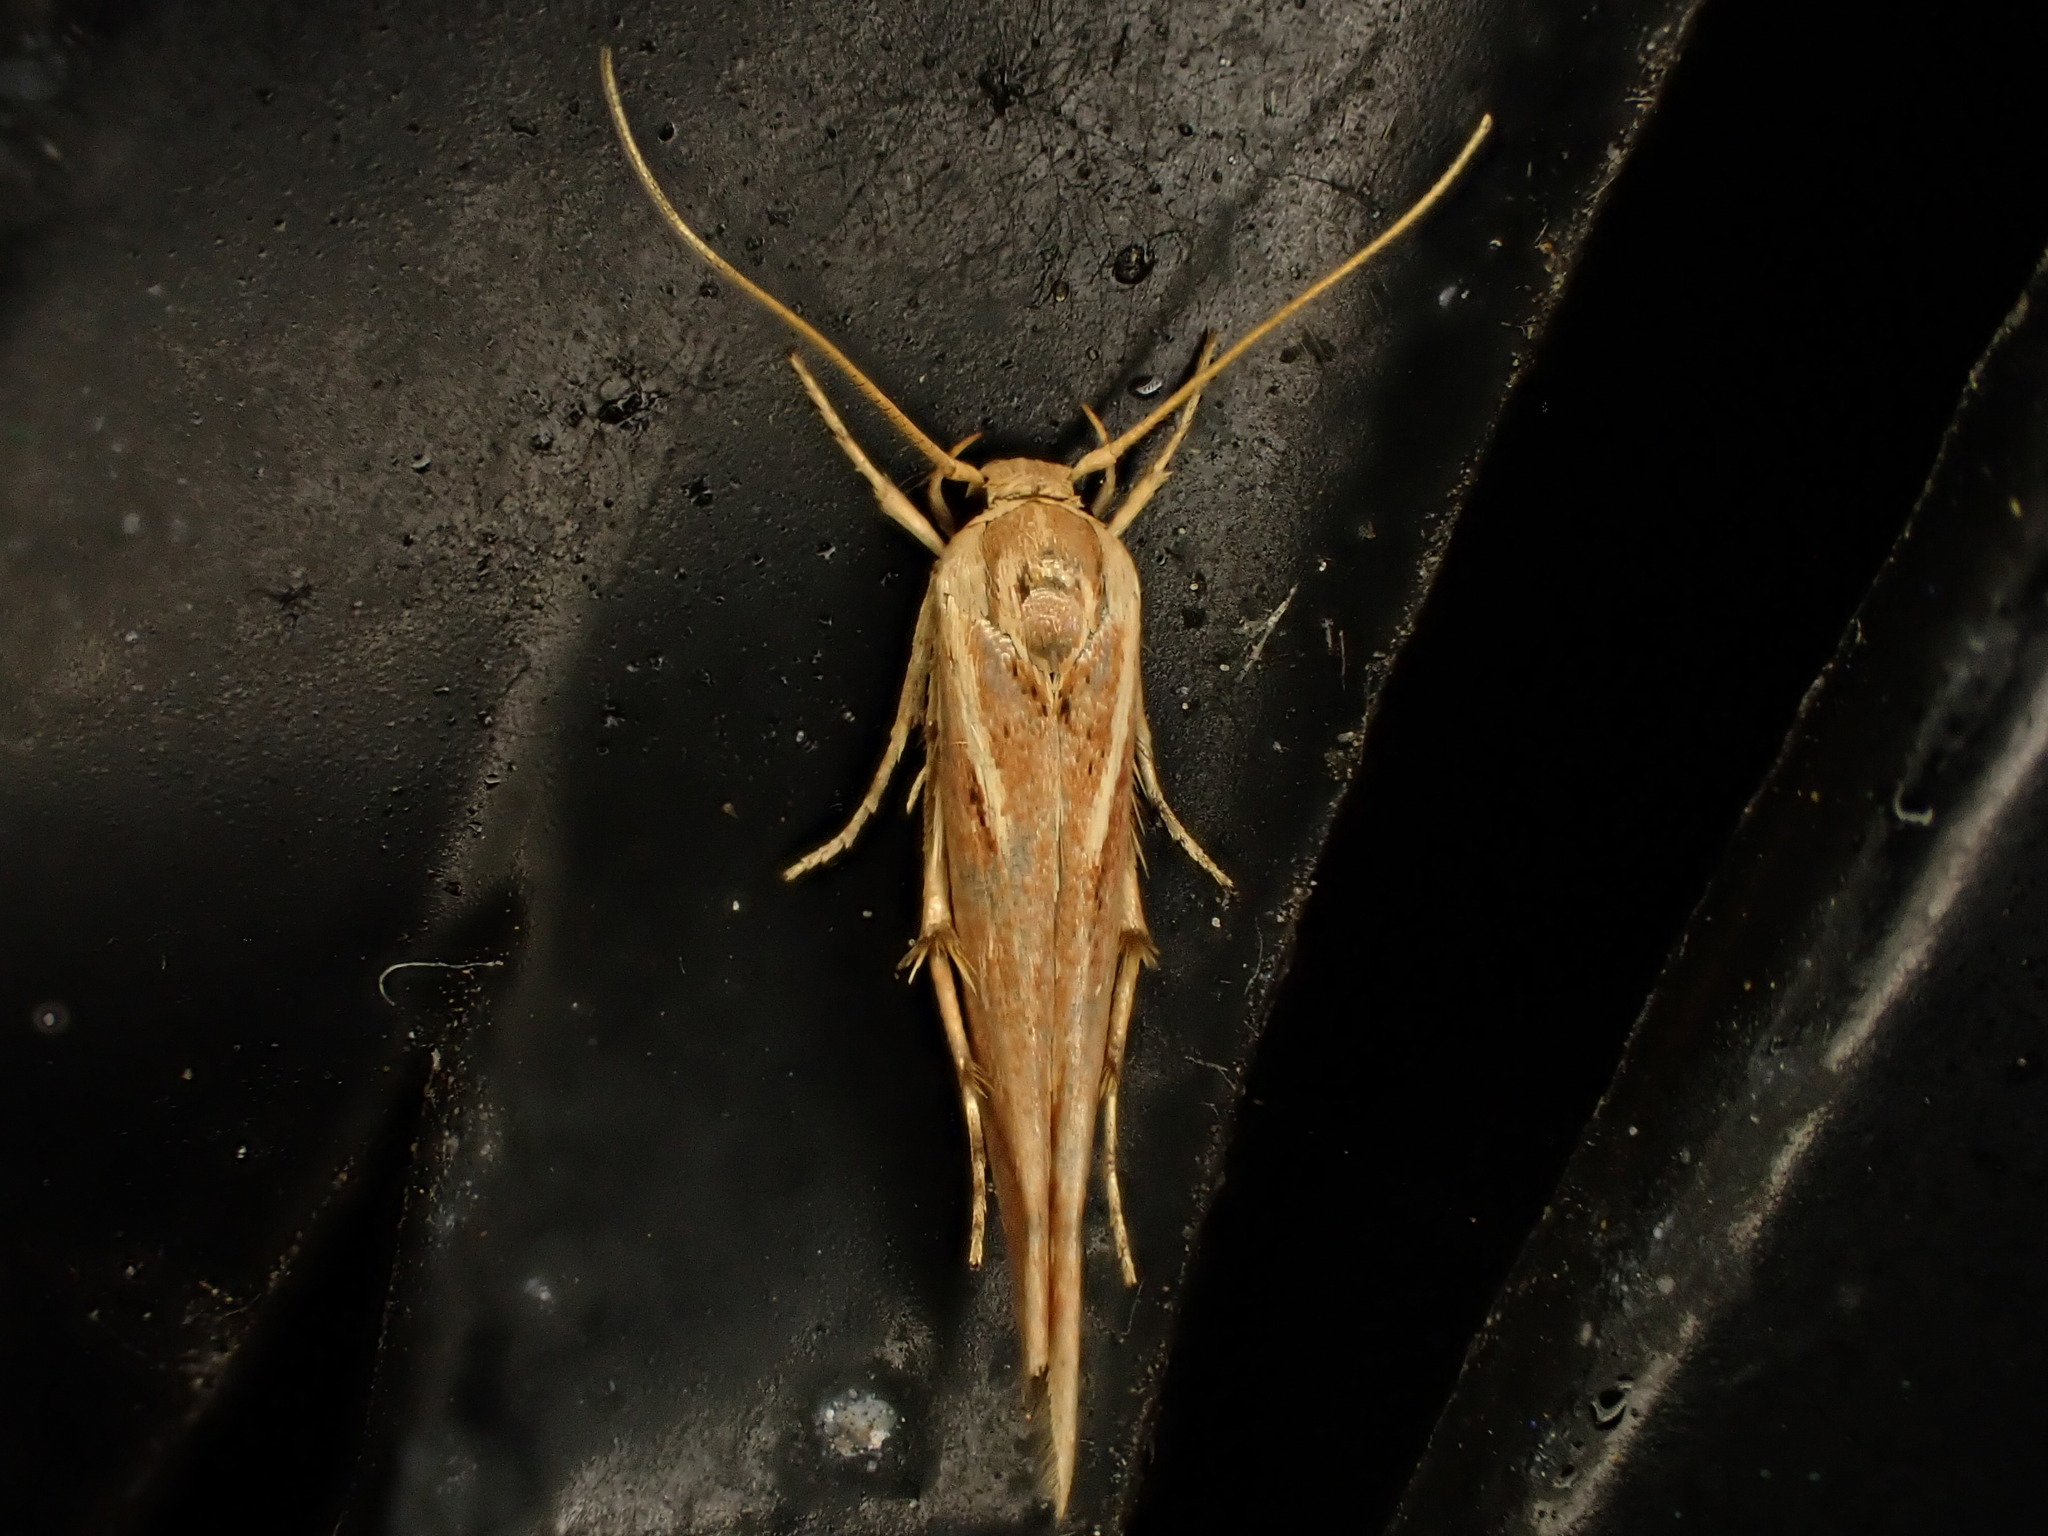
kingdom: Animalia
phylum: Arthropoda
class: Insecta
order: Lepidoptera
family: Stathmopodidae
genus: Stathmopoda
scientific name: Stathmopoda cephalaea
